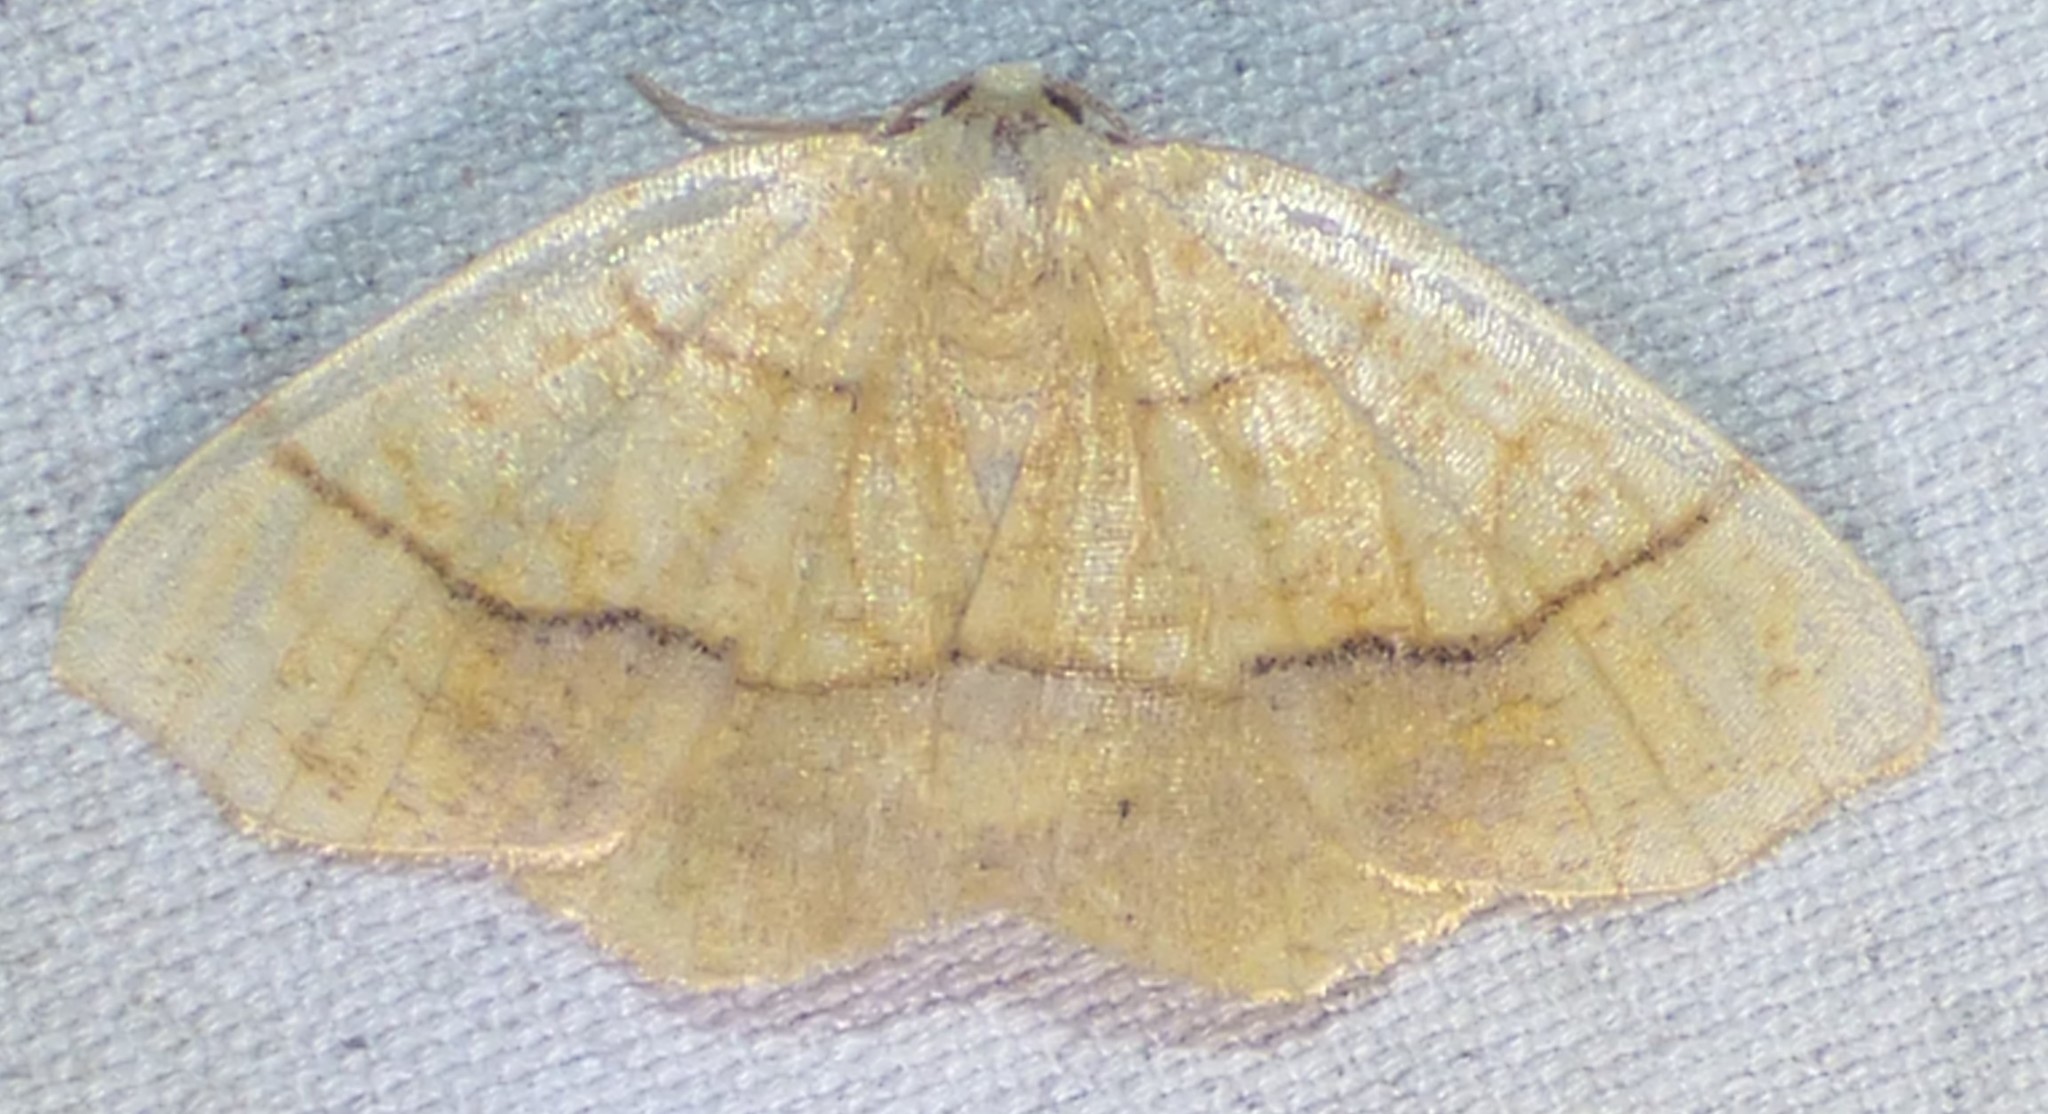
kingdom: Animalia
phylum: Arthropoda
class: Insecta
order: Lepidoptera
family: Geometridae
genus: Nematocampa
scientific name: Nematocampa resistaria
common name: Horned spanworm moth
